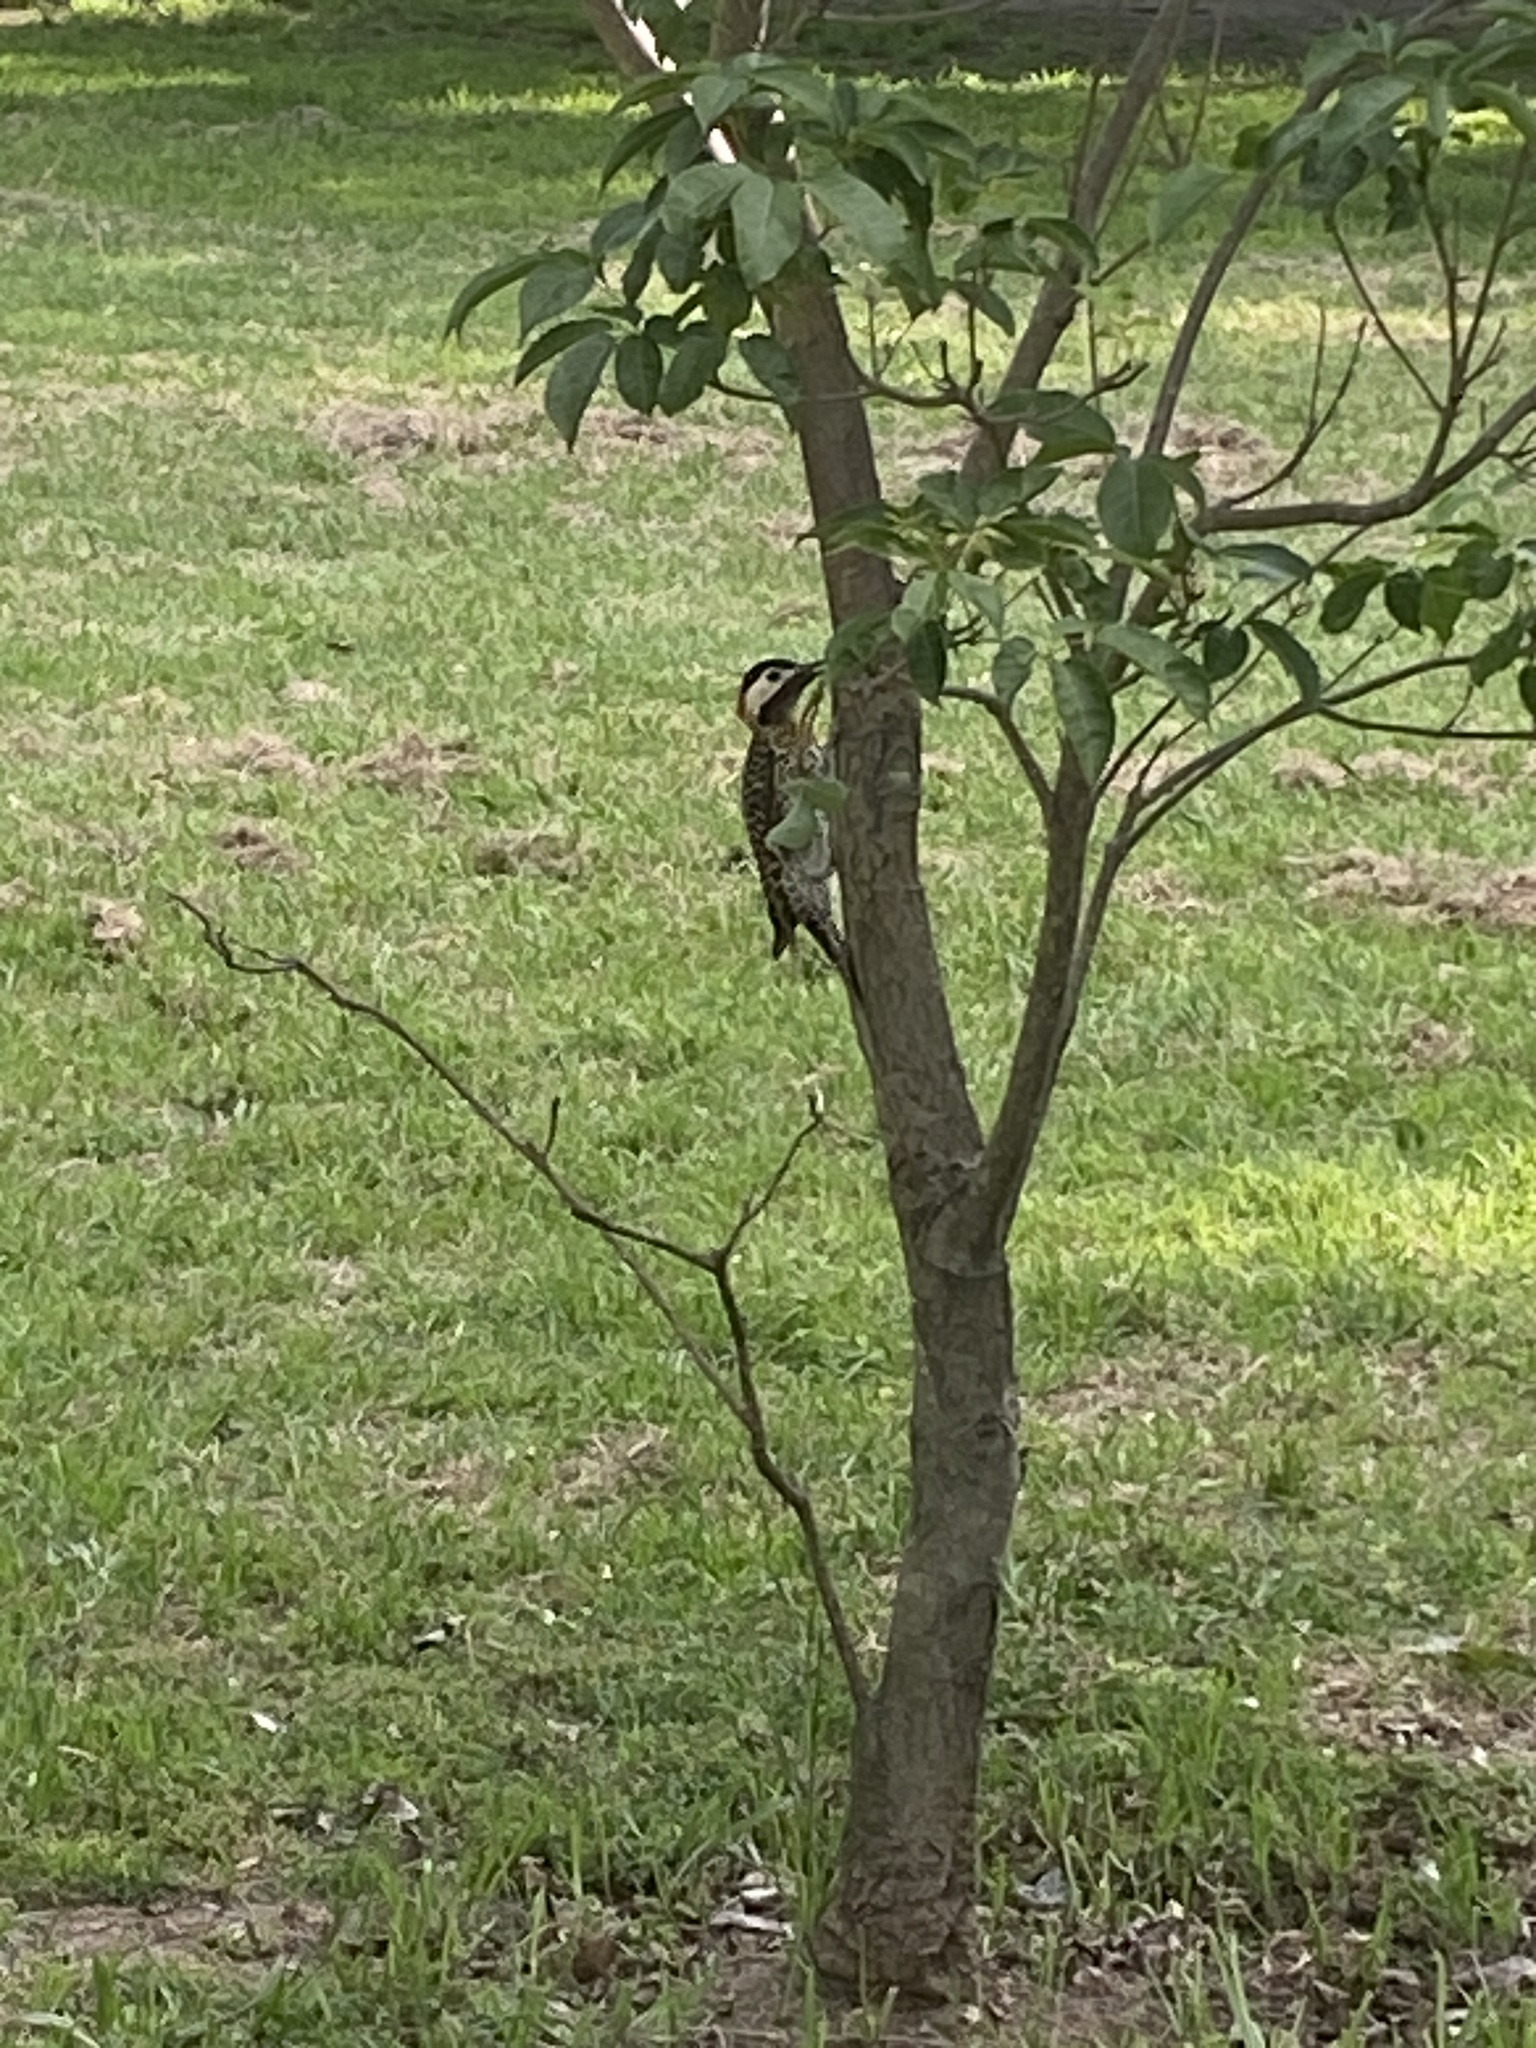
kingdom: Animalia
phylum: Chordata
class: Aves
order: Piciformes
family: Picidae
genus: Colaptes
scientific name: Colaptes melanochloros
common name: Green-barred woodpecker
